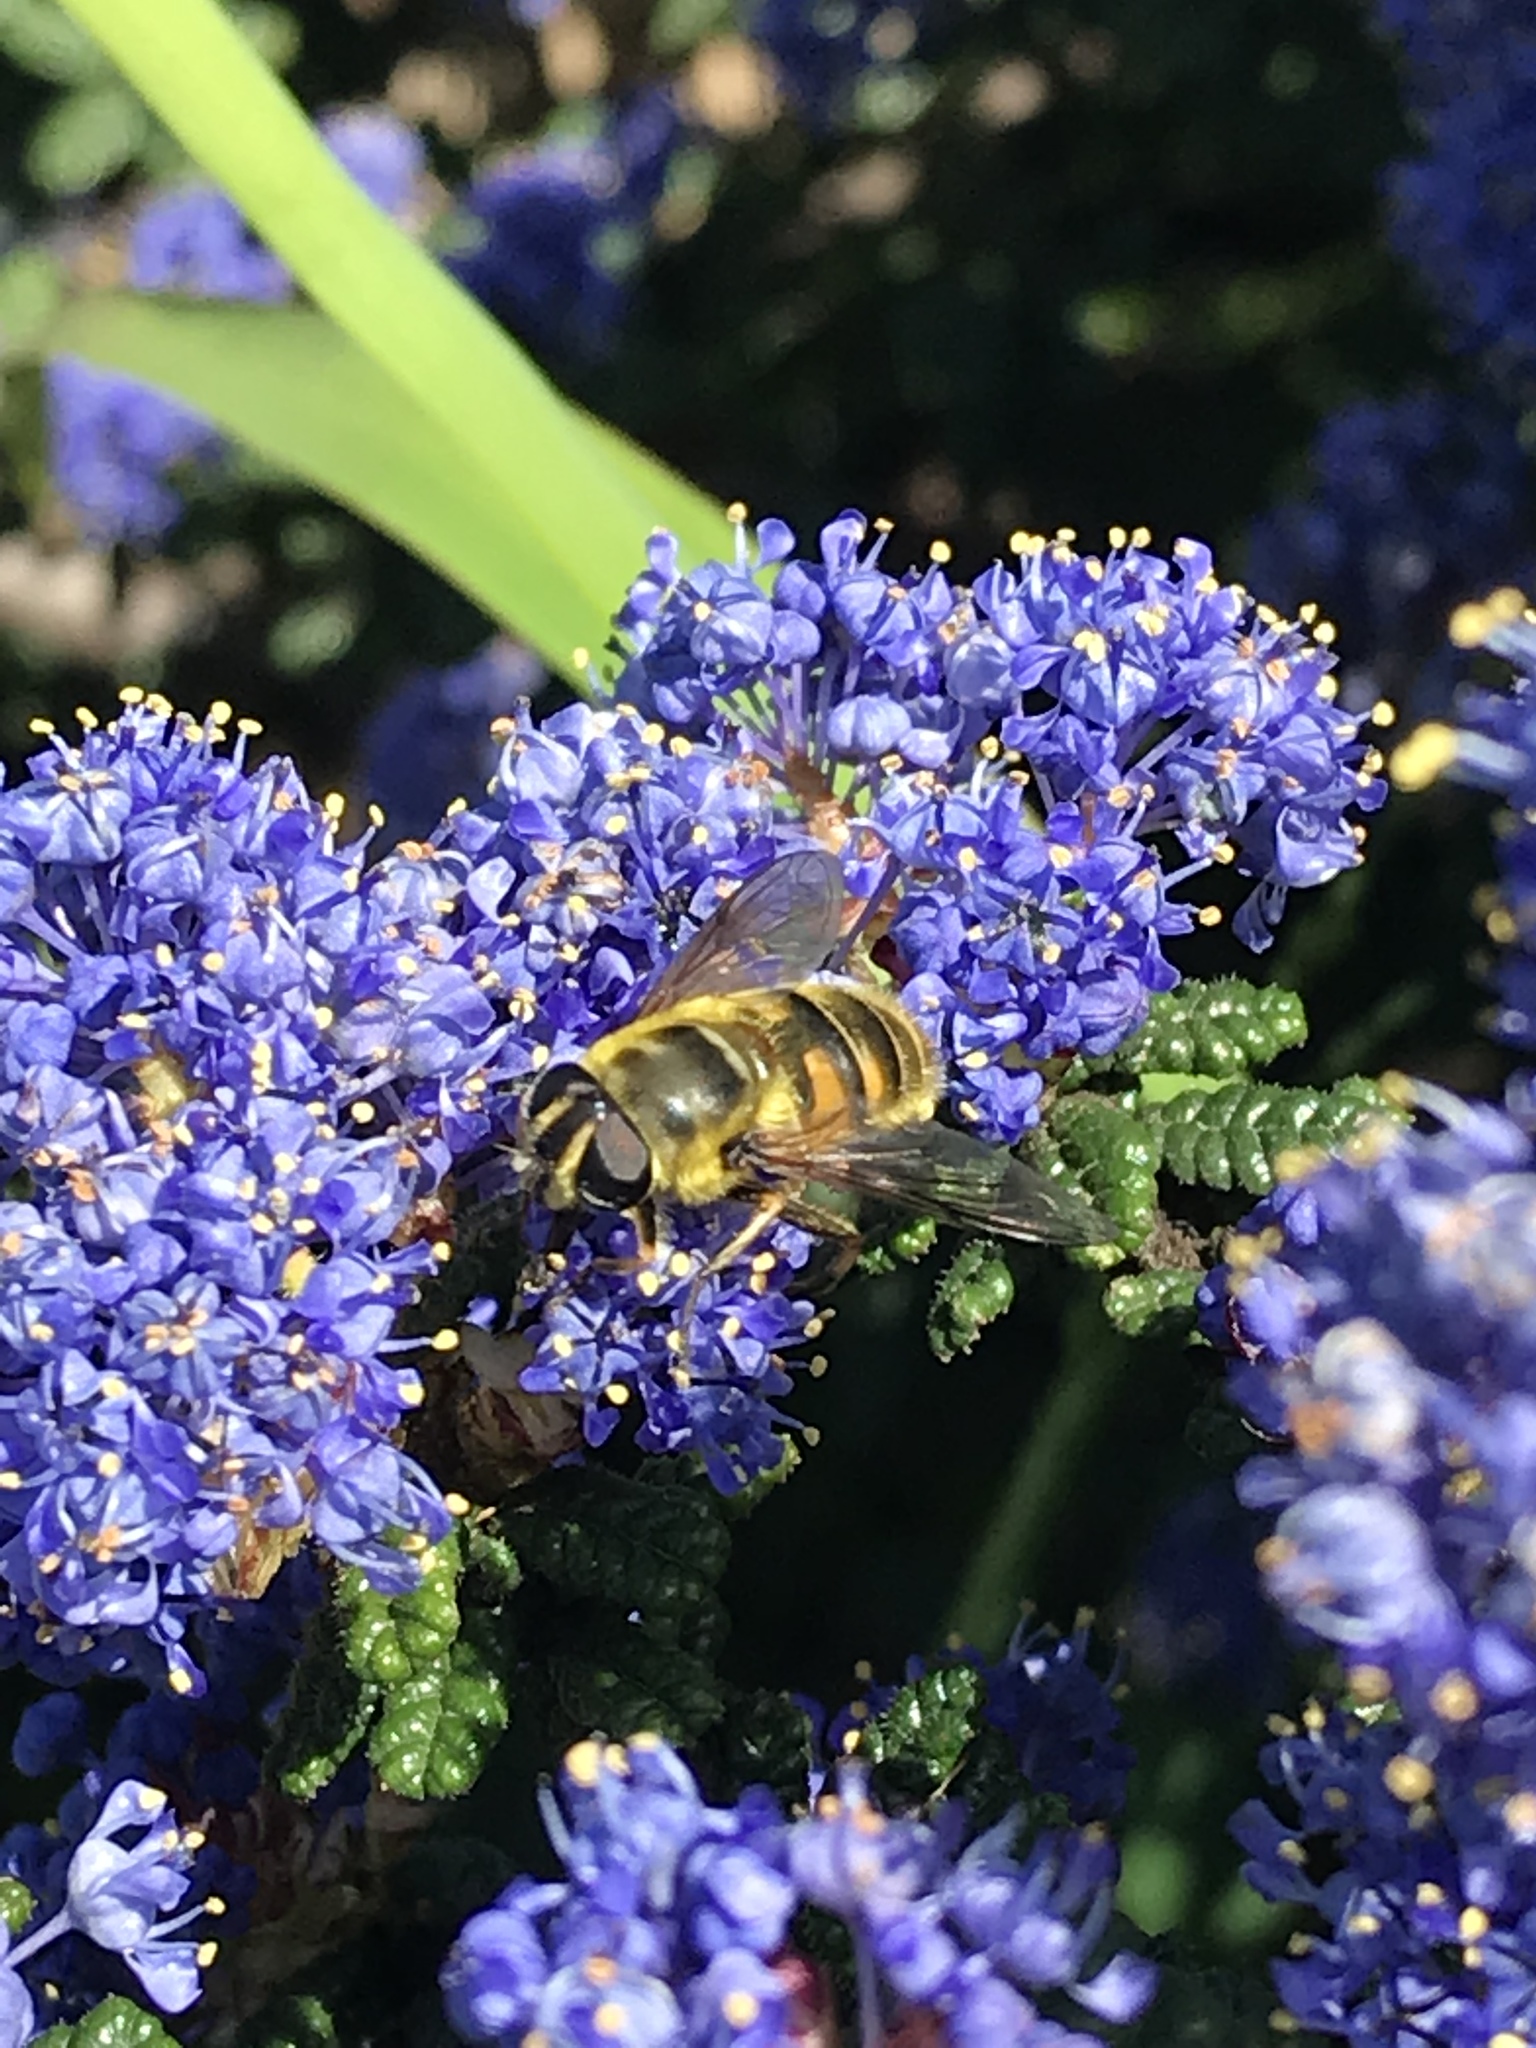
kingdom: Animalia
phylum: Arthropoda
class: Insecta
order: Diptera
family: Syrphidae
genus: Myathropa
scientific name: Myathropa florea
